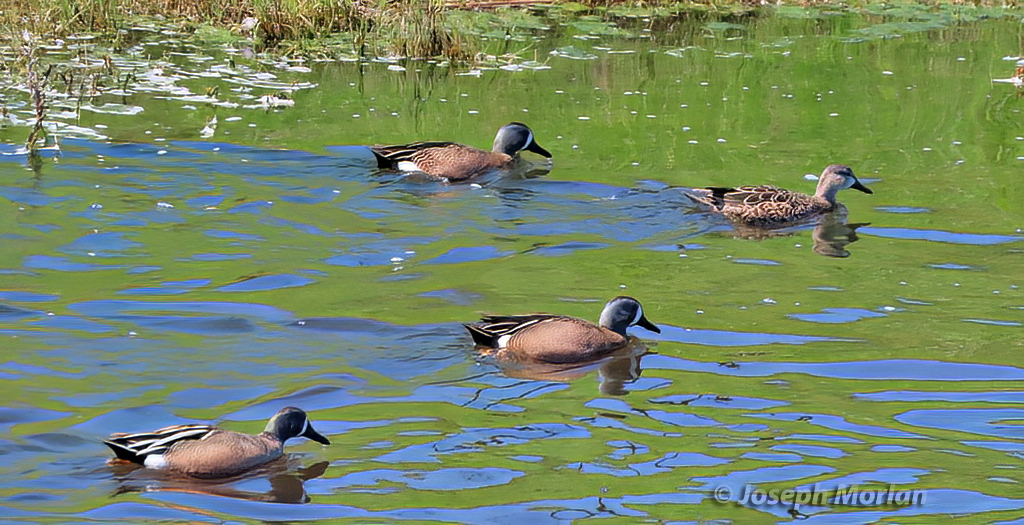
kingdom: Animalia
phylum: Chordata
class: Aves
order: Anseriformes
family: Anatidae
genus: Spatula
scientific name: Spatula discors
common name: Blue-winged teal
